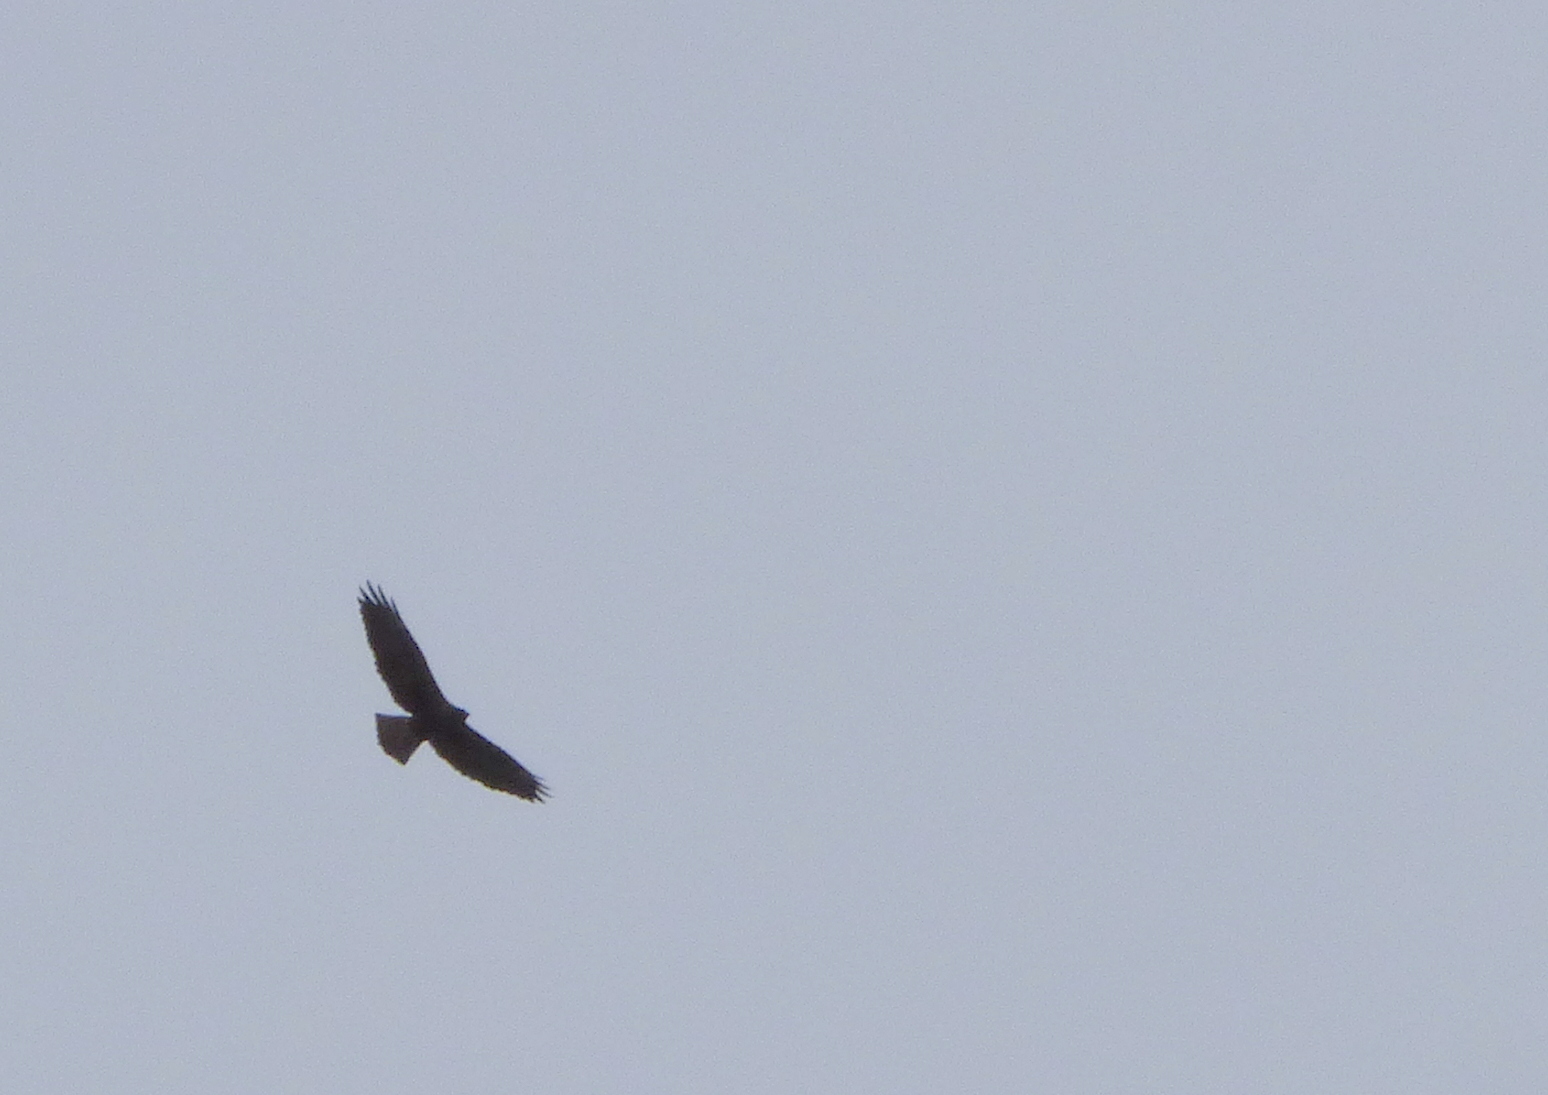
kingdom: Animalia
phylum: Chordata
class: Aves
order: Accipitriformes
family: Accipitridae
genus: Buteo
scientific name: Buteo swainsoni
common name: Swainson's hawk
